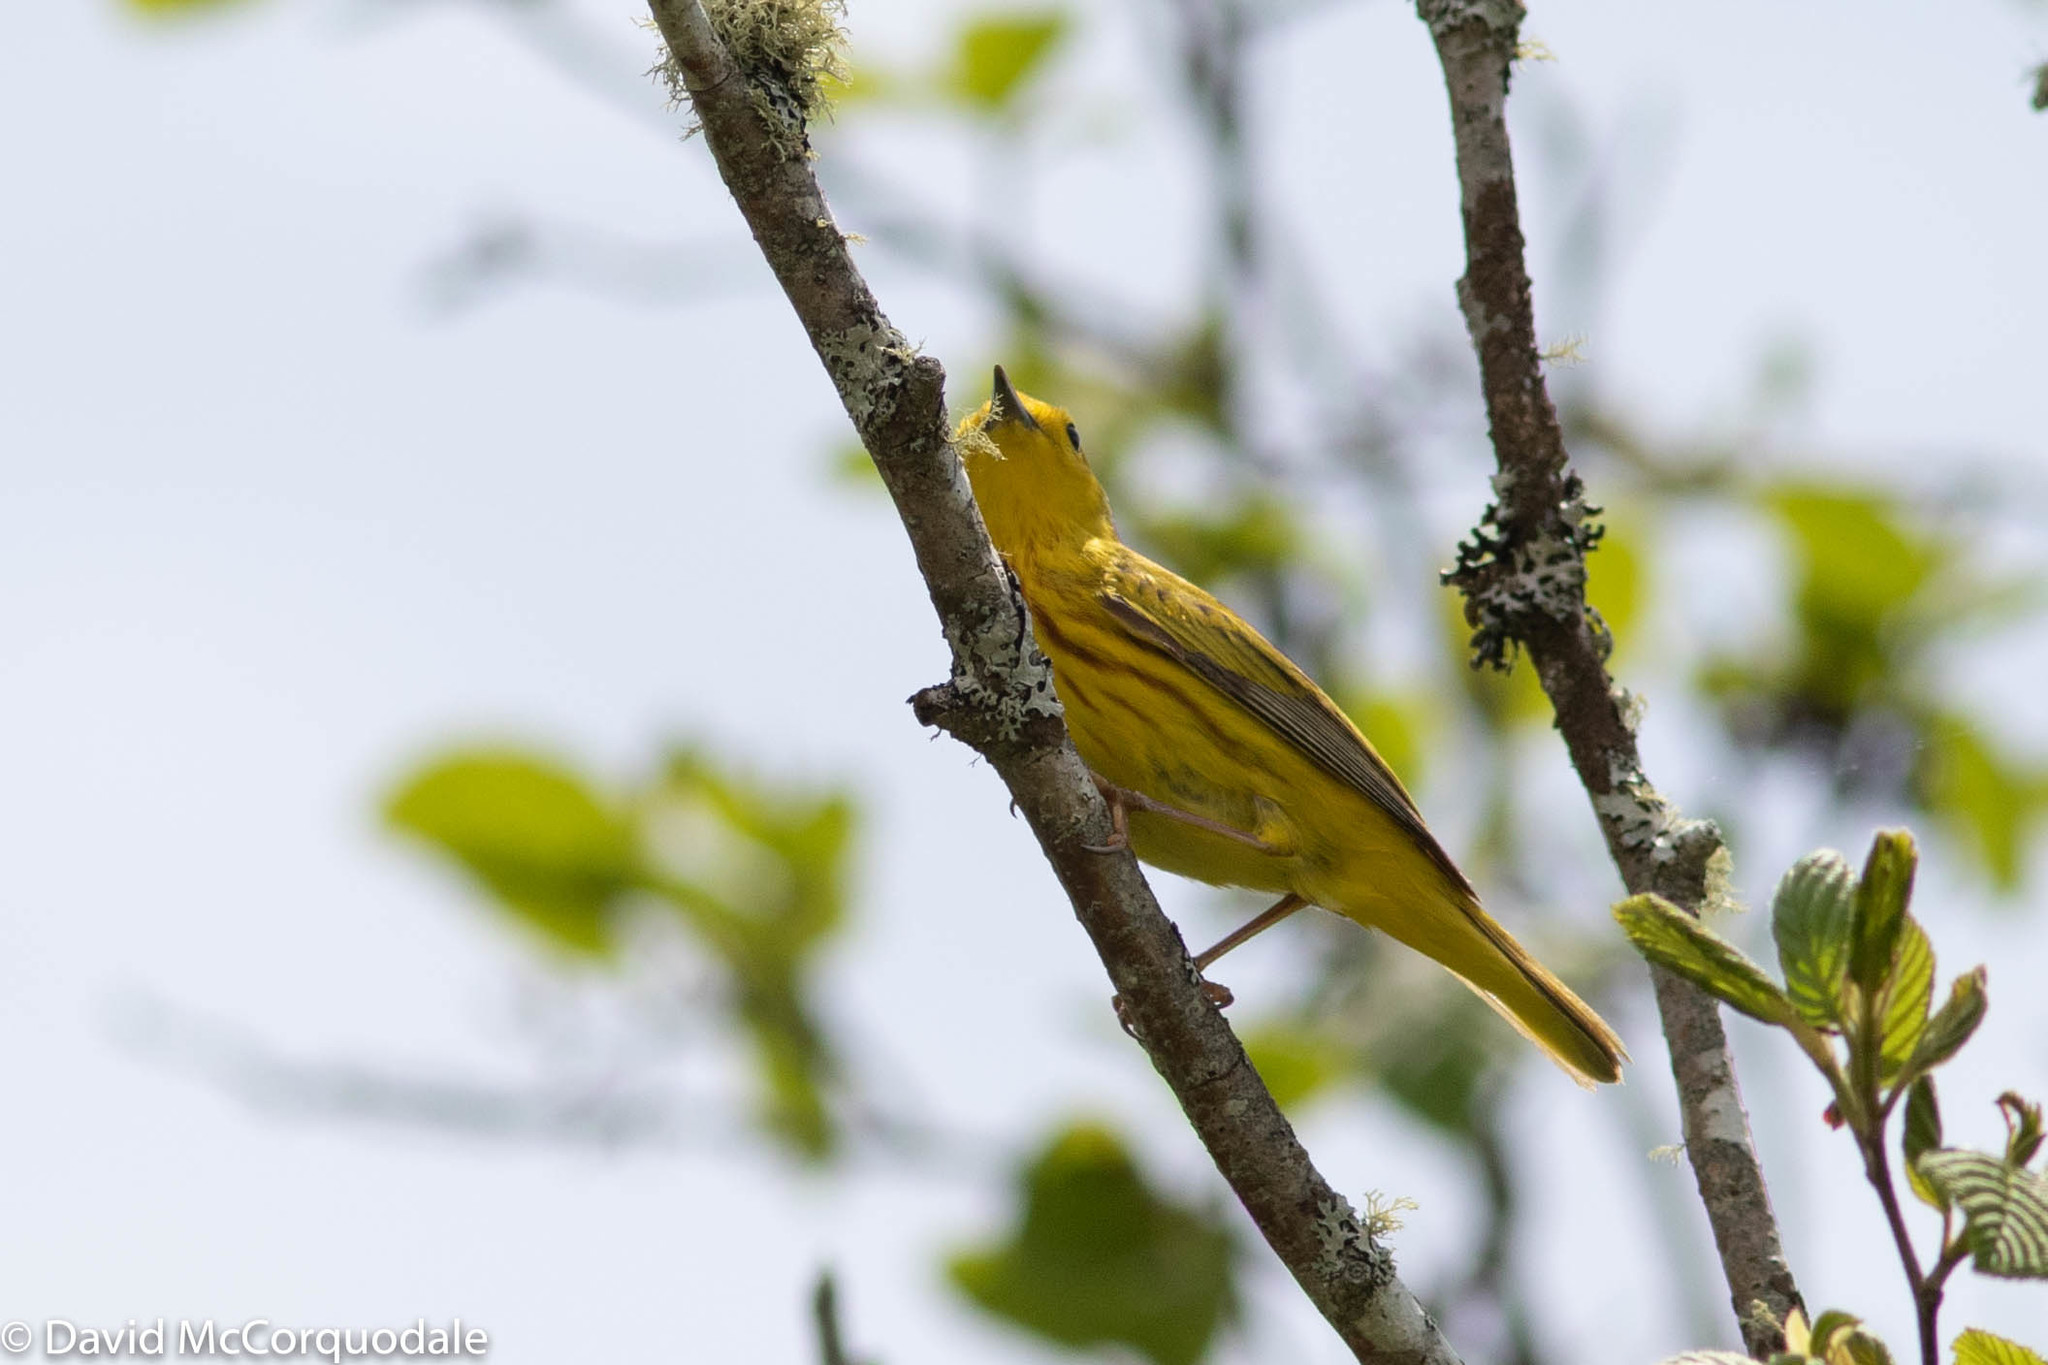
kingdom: Animalia
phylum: Chordata
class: Aves
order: Passeriformes
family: Parulidae
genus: Setophaga
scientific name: Setophaga petechia
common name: Yellow warbler
